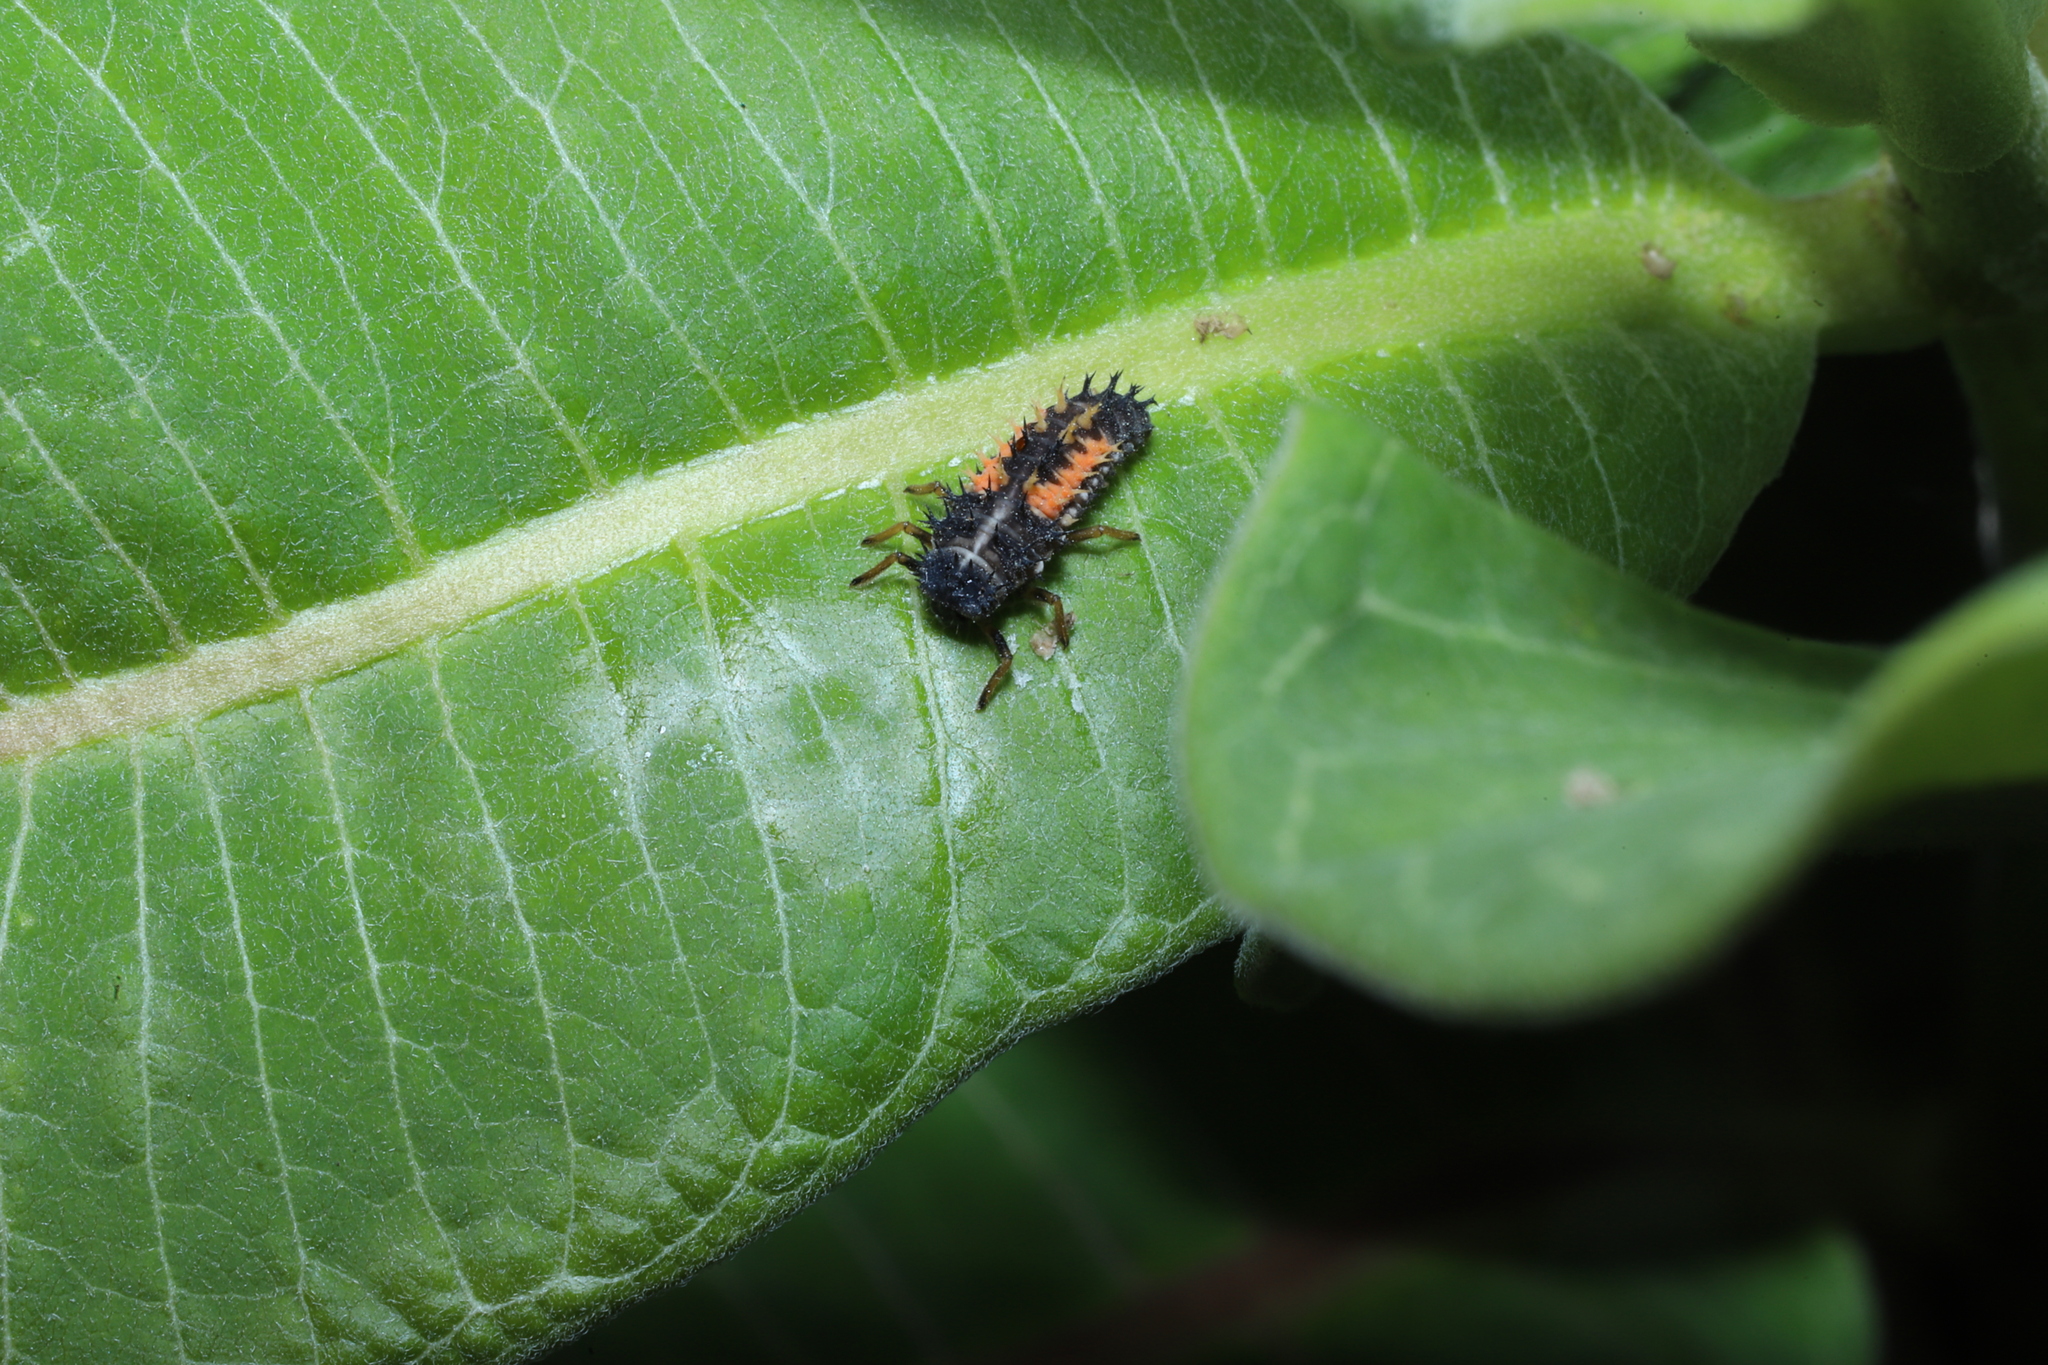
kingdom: Animalia
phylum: Arthropoda
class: Insecta
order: Coleoptera
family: Coccinellidae
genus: Harmonia
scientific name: Harmonia axyridis
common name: Harlequin ladybird
